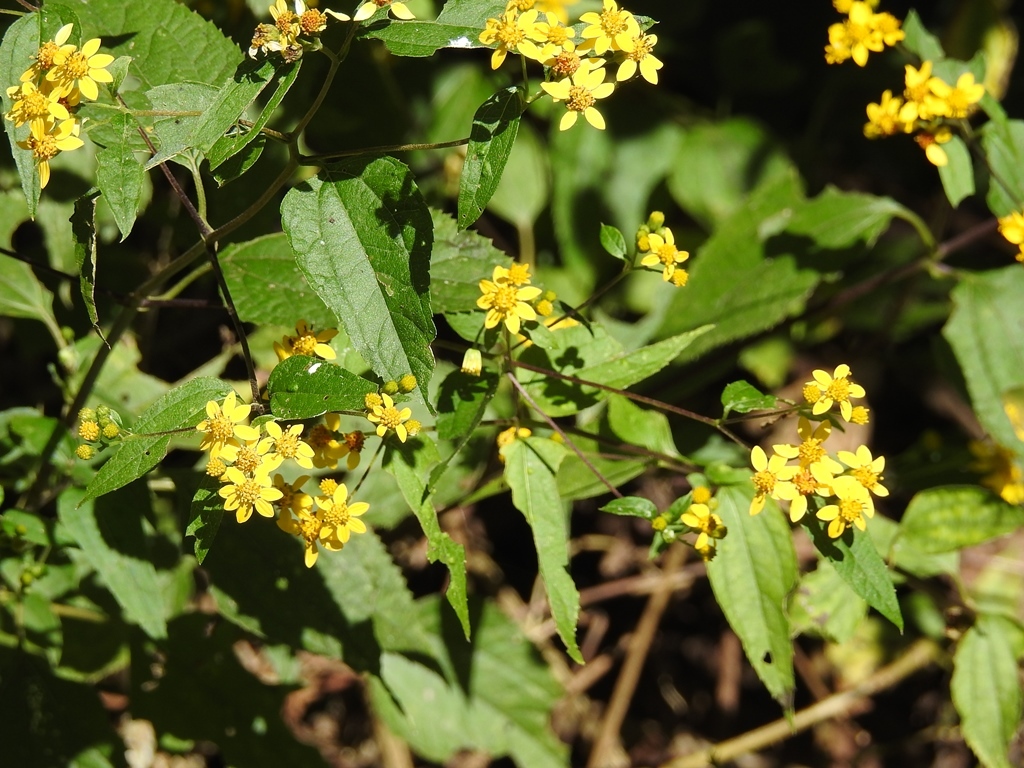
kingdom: Plantae
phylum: Tracheophyta
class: Magnoliopsida
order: Asterales
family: Asteraceae
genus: Calea
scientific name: Calea urticifolia
